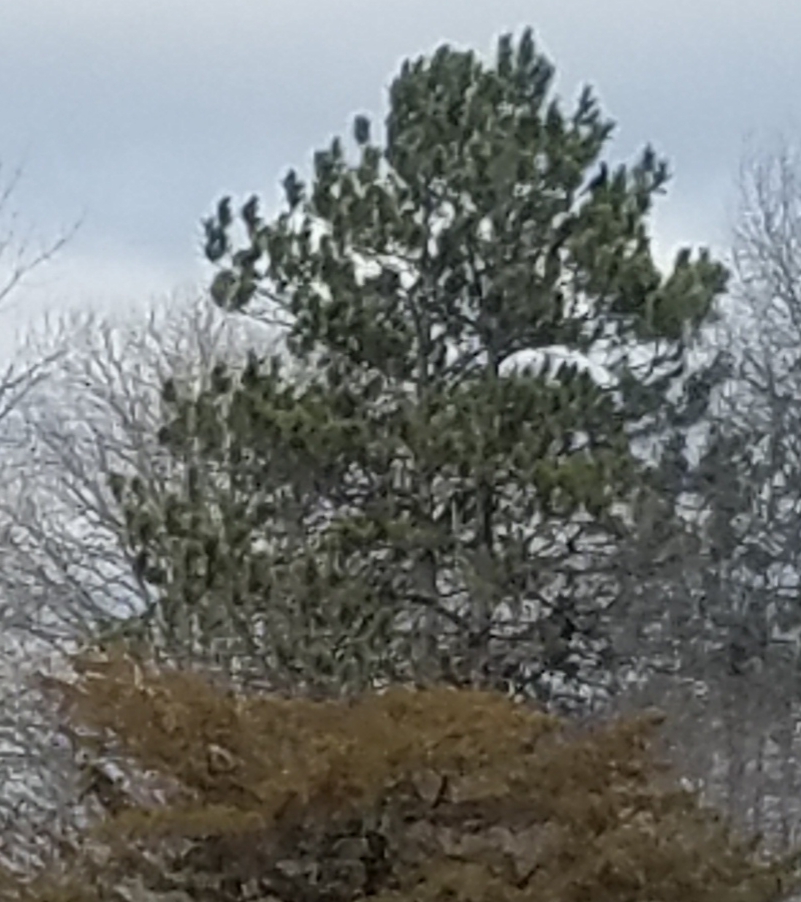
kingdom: Plantae
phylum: Tracheophyta
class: Pinopsida
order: Pinales
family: Pinaceae
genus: Pinus
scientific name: Pinus resinosa
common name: Norway pine
